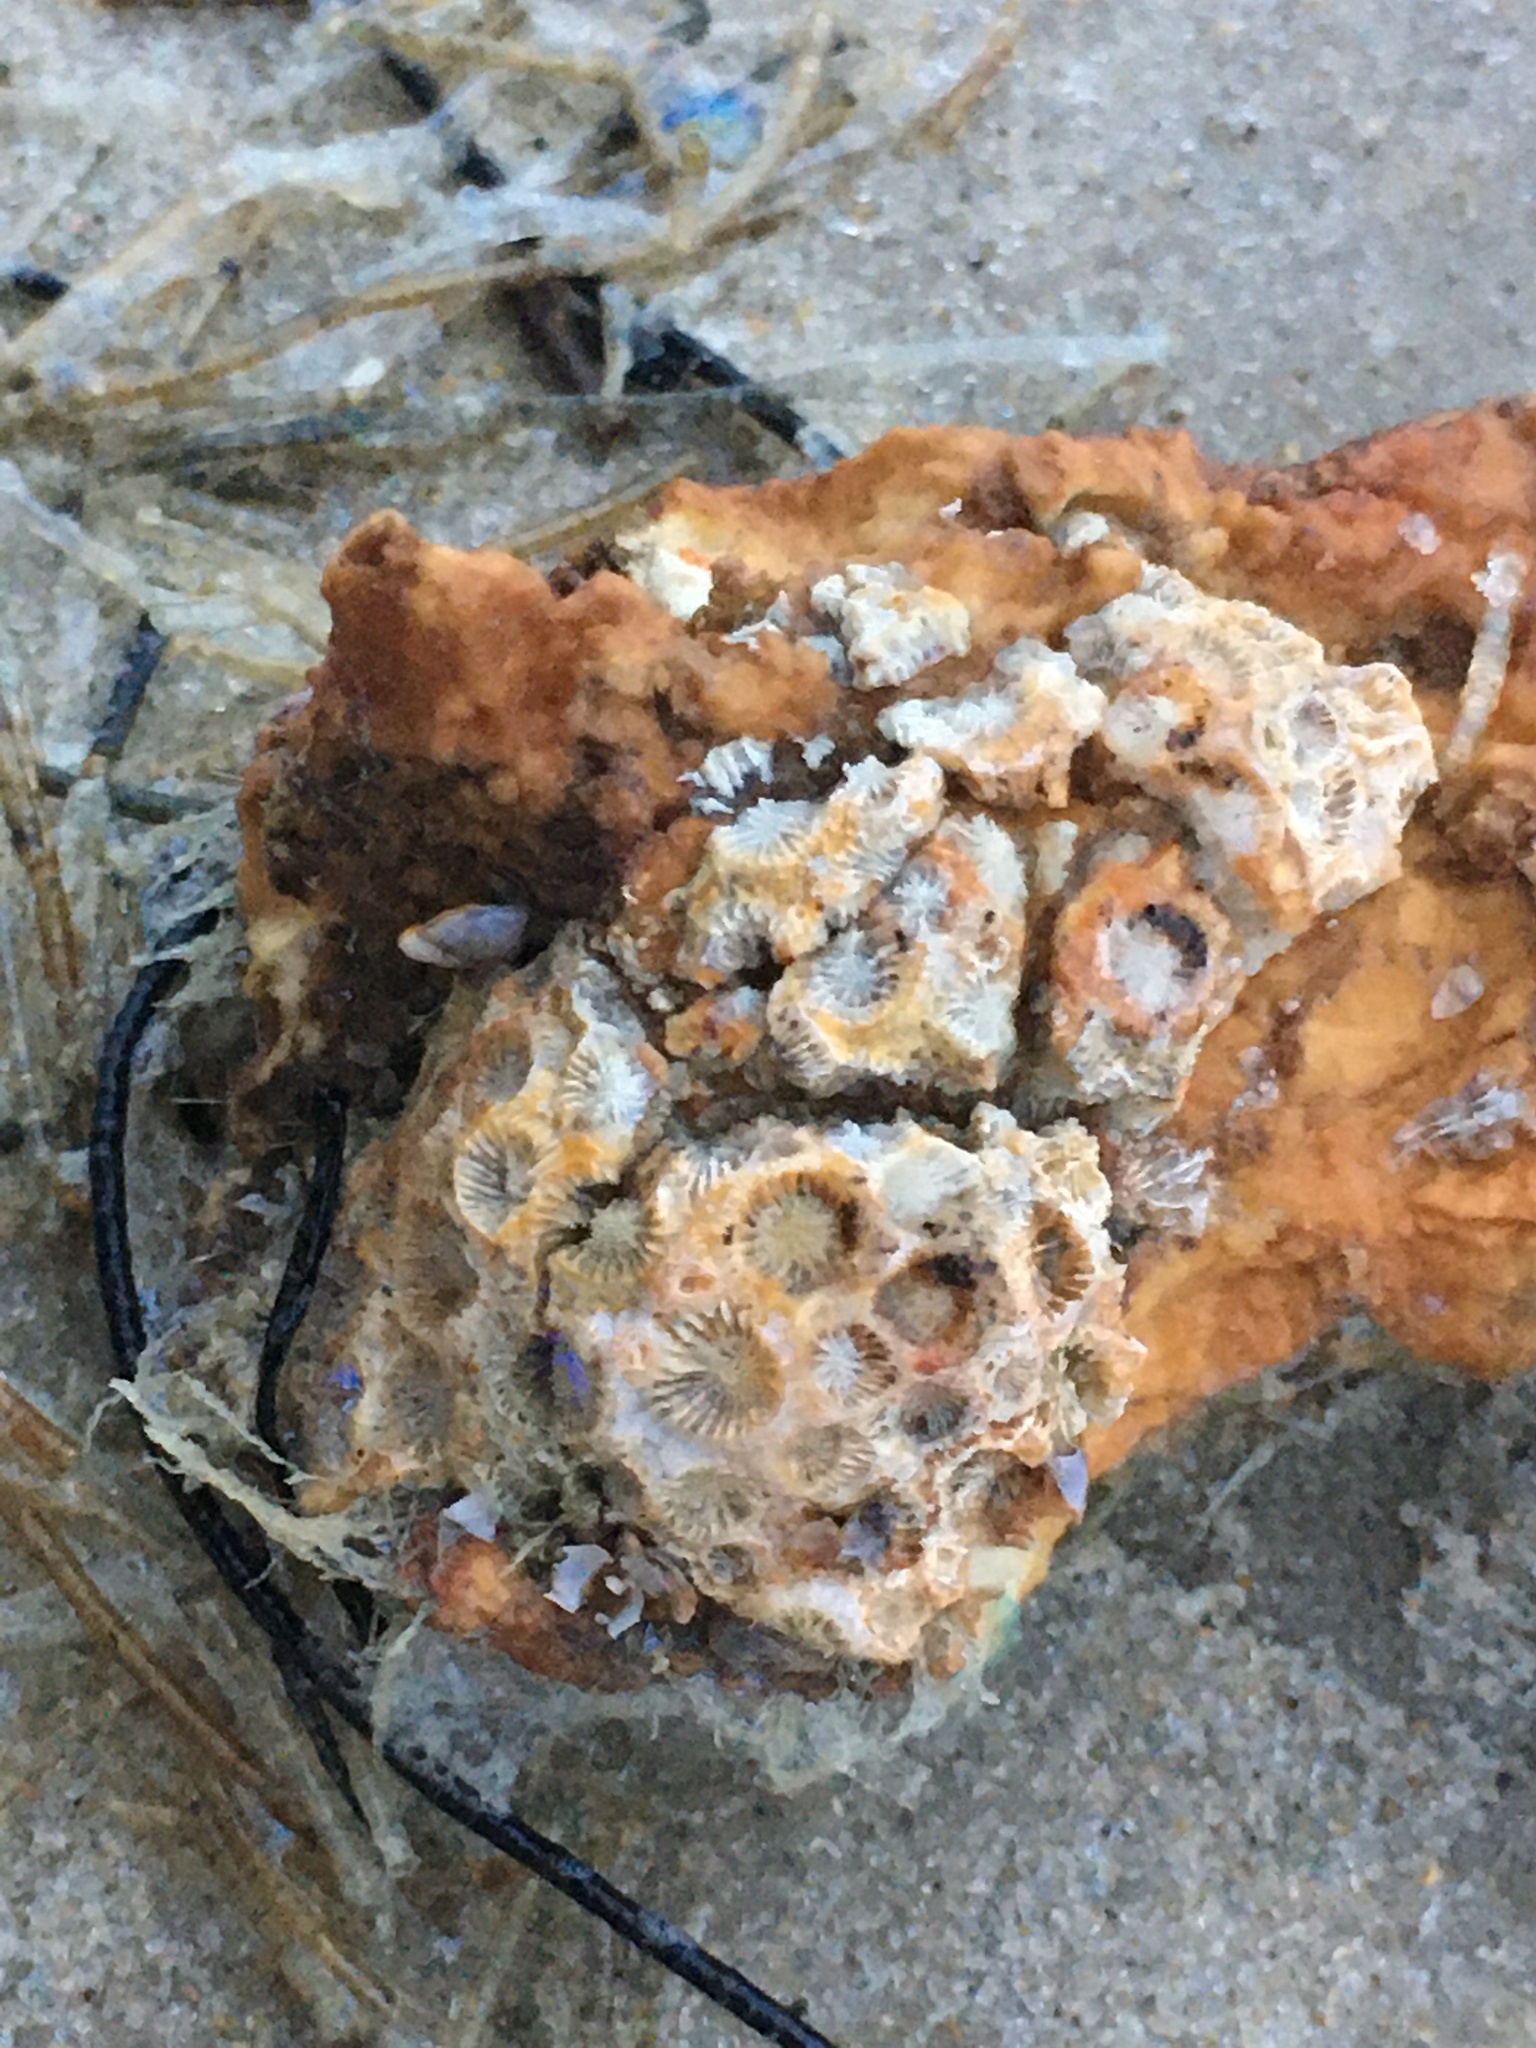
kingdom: Animalia
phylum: Cnidaria
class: Anthozoa
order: Scleractinia
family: Astrangiidae
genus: Astrangia
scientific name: Astrangia poculata
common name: Northern star coral
